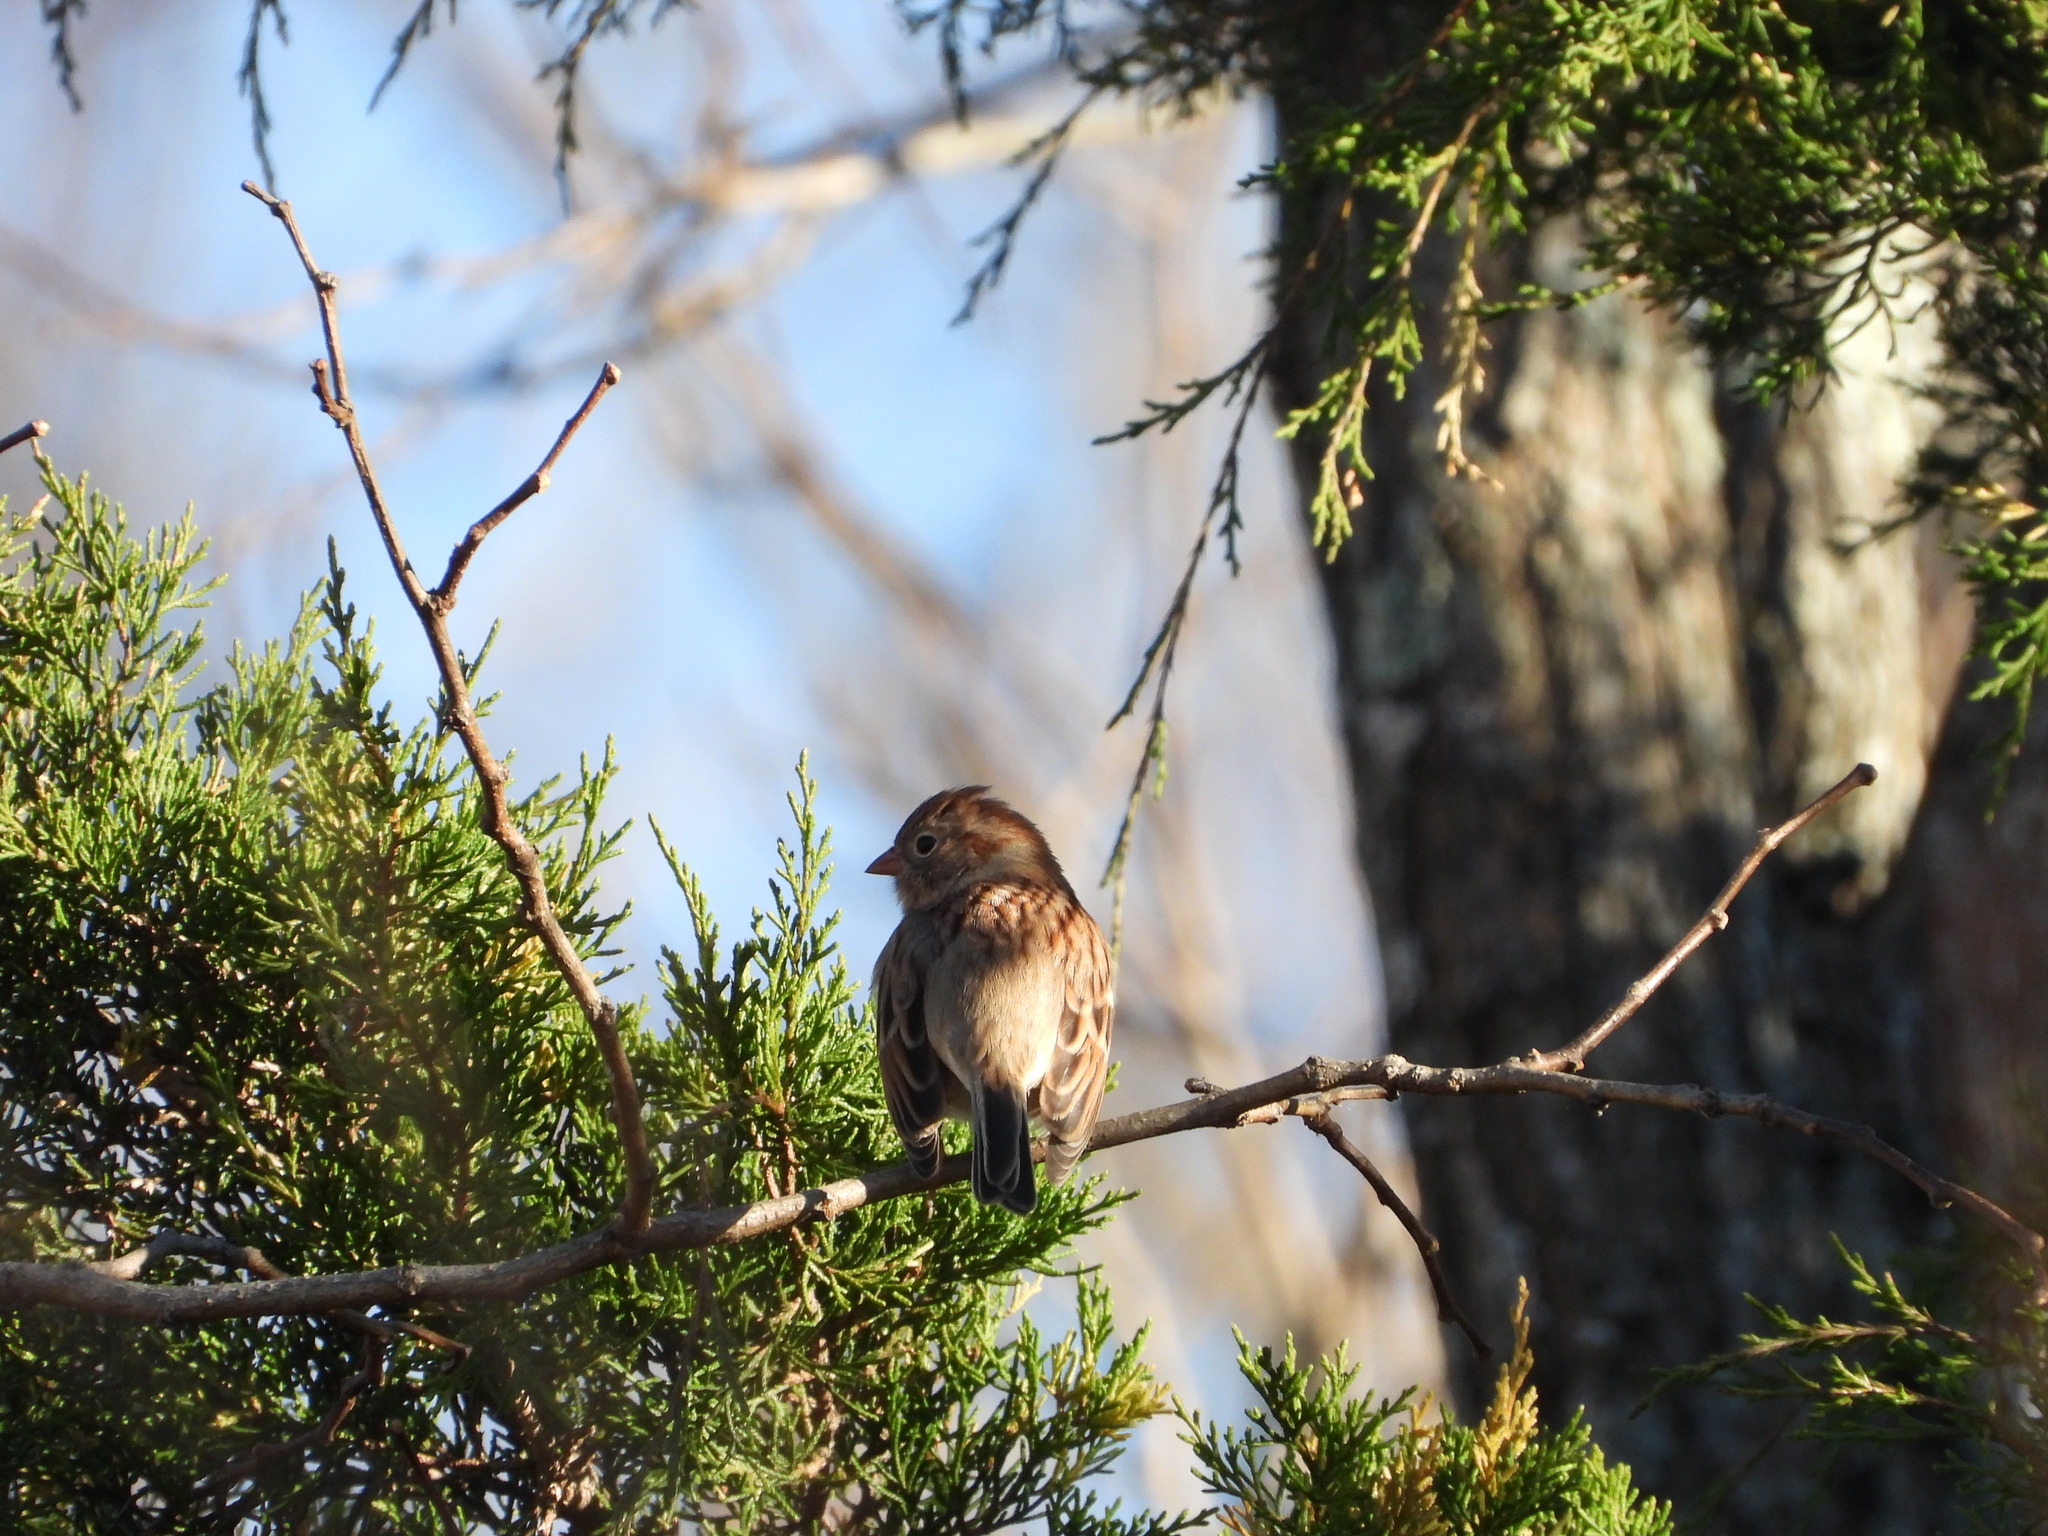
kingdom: Animalia
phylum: Chordata
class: Aves
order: Passeriformes
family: Passerellidae
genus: Spizella
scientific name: Spizella pusilla
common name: Field sparrow
